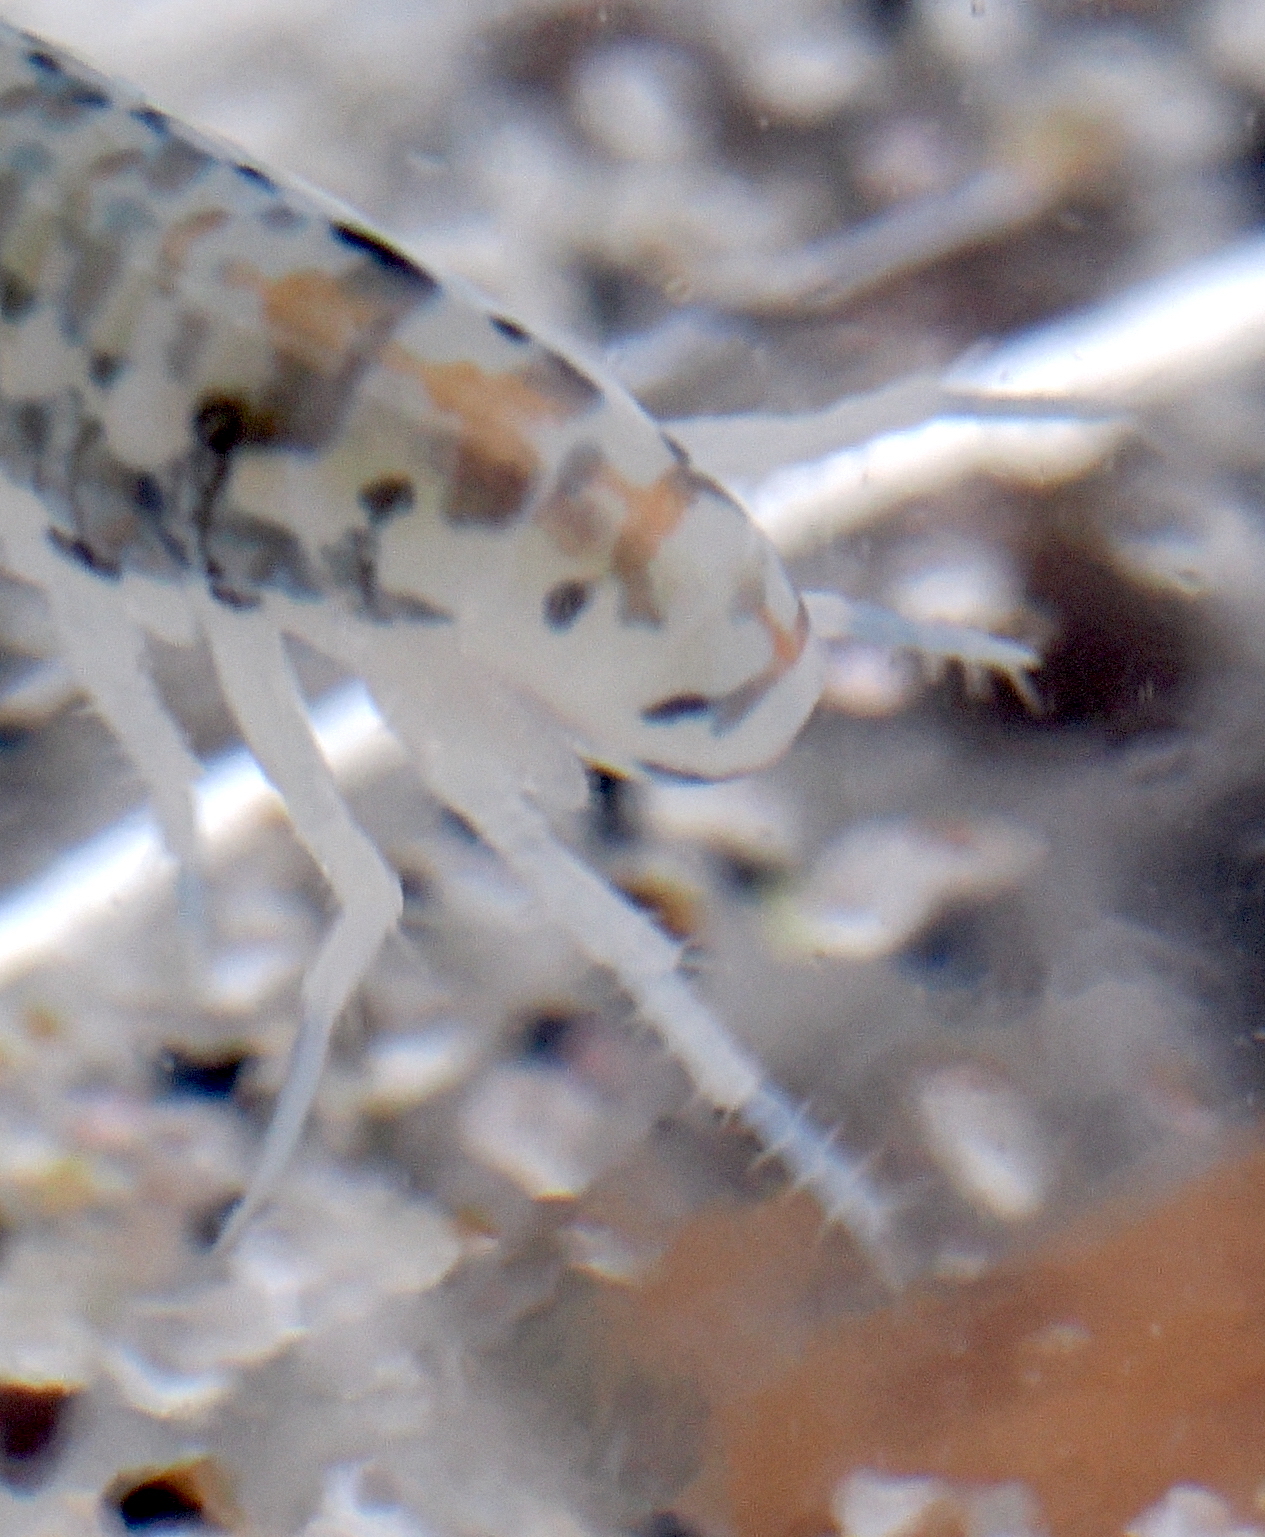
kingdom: Animalia
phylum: Arthropoda
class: Malacostraca
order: Amphipoda
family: Talitridae
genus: Megalorchestia
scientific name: Megalorchestia benedicti
